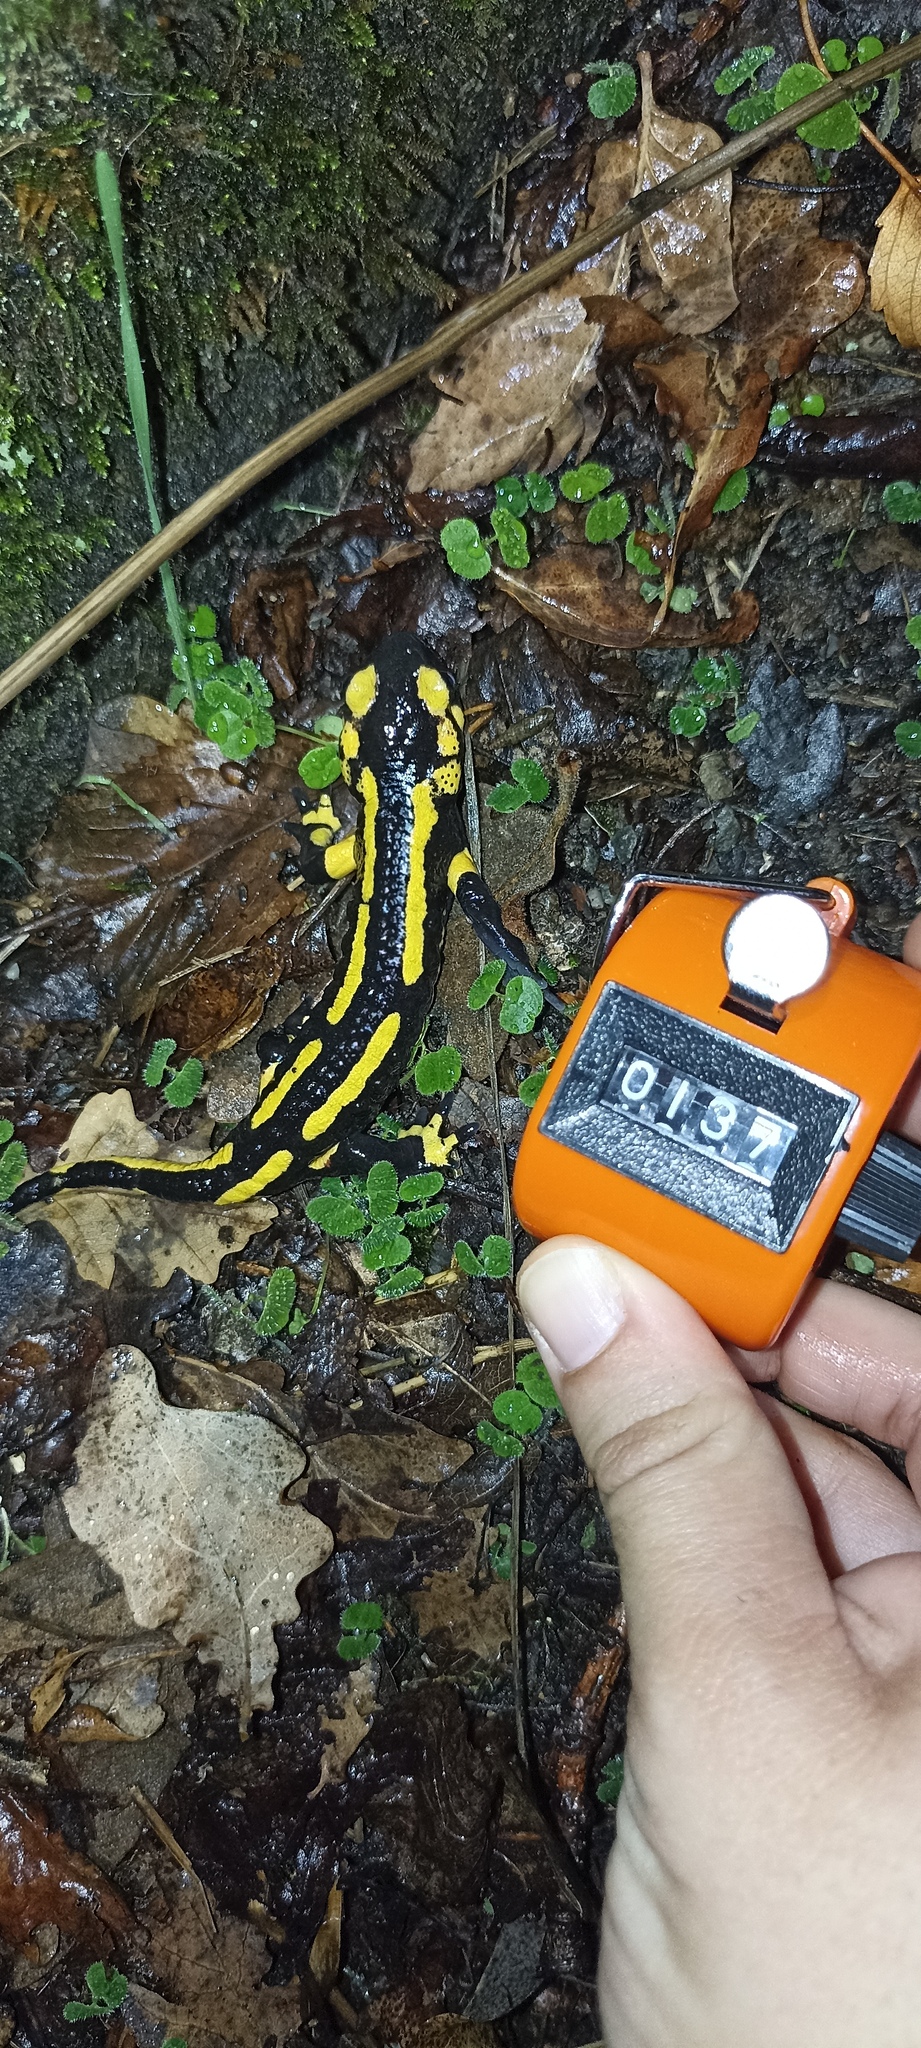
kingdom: Animalia
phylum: Chordata
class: Amphibia
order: Caudata
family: Salamandridae
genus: Salamandra
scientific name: Salamandra salamandra
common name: Fire salamander
